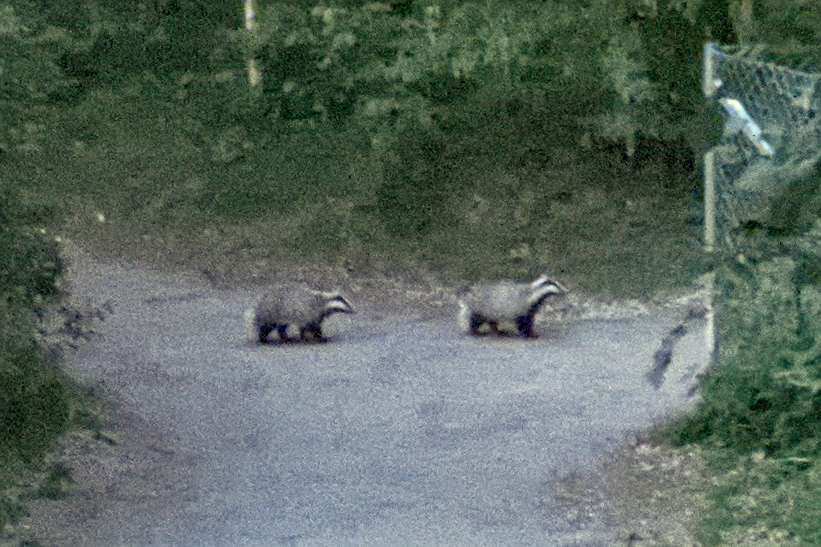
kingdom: Animalia
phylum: Chordata
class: Mammalia
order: Carnivora
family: Mustelidae
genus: Meles
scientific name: Meles meles
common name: Eurasian badger
